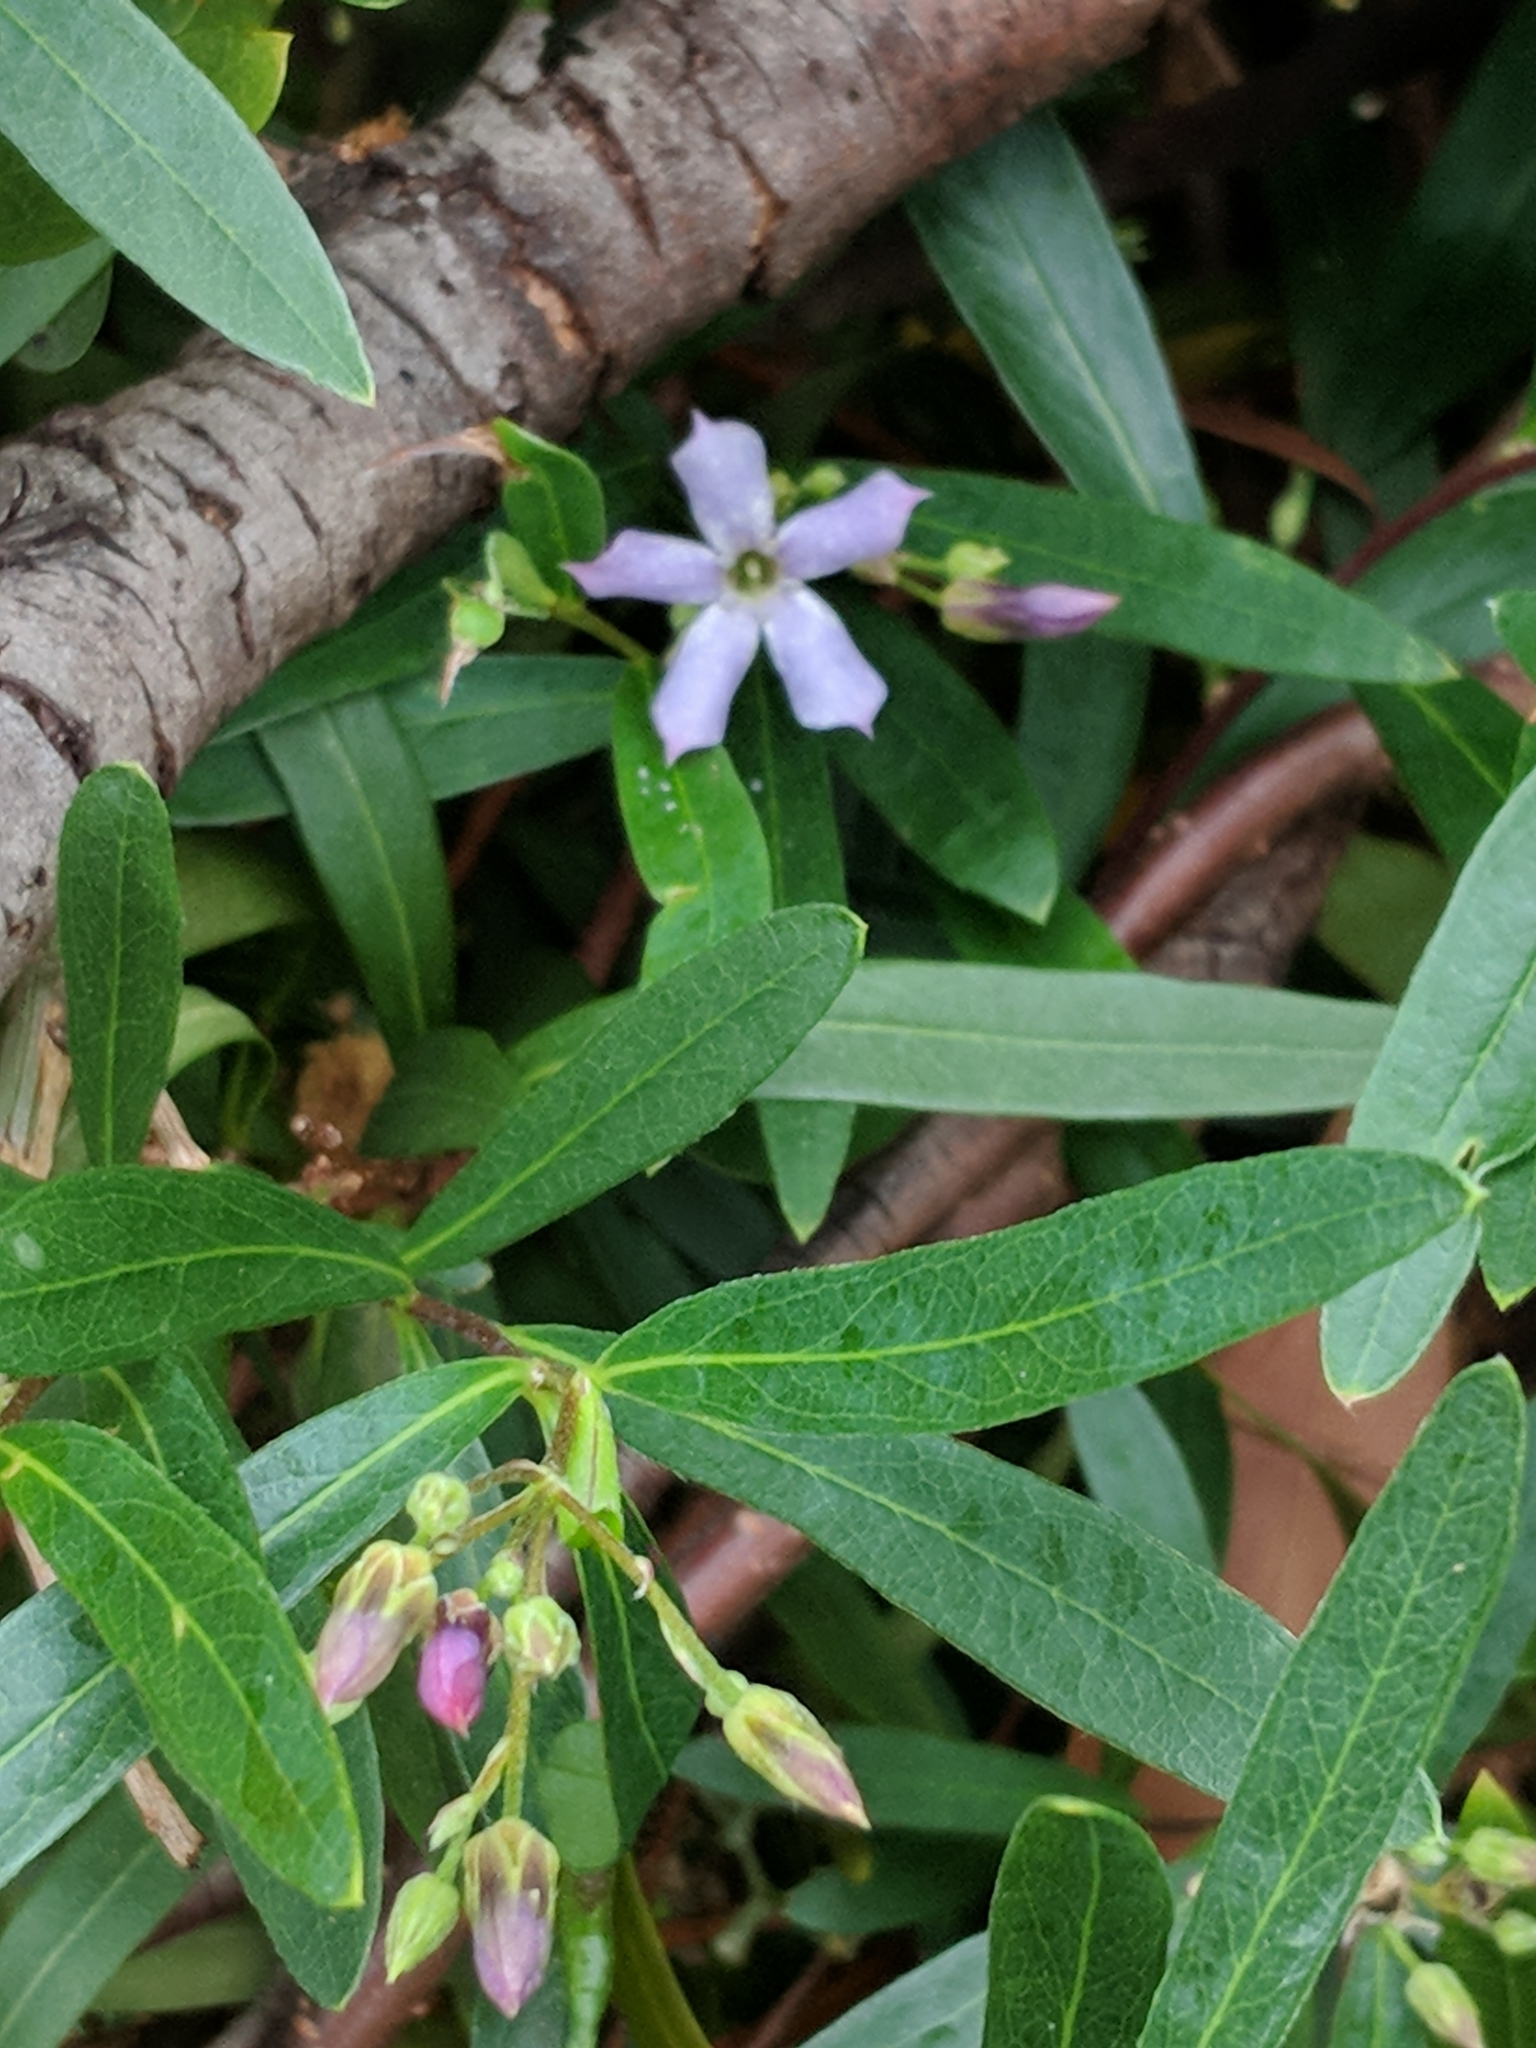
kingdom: Plantae
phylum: Tracheophyta
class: Magnoliopsida
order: Apiales
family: Pittosporaceae
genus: Billardiera
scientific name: Billardiera cymosa
